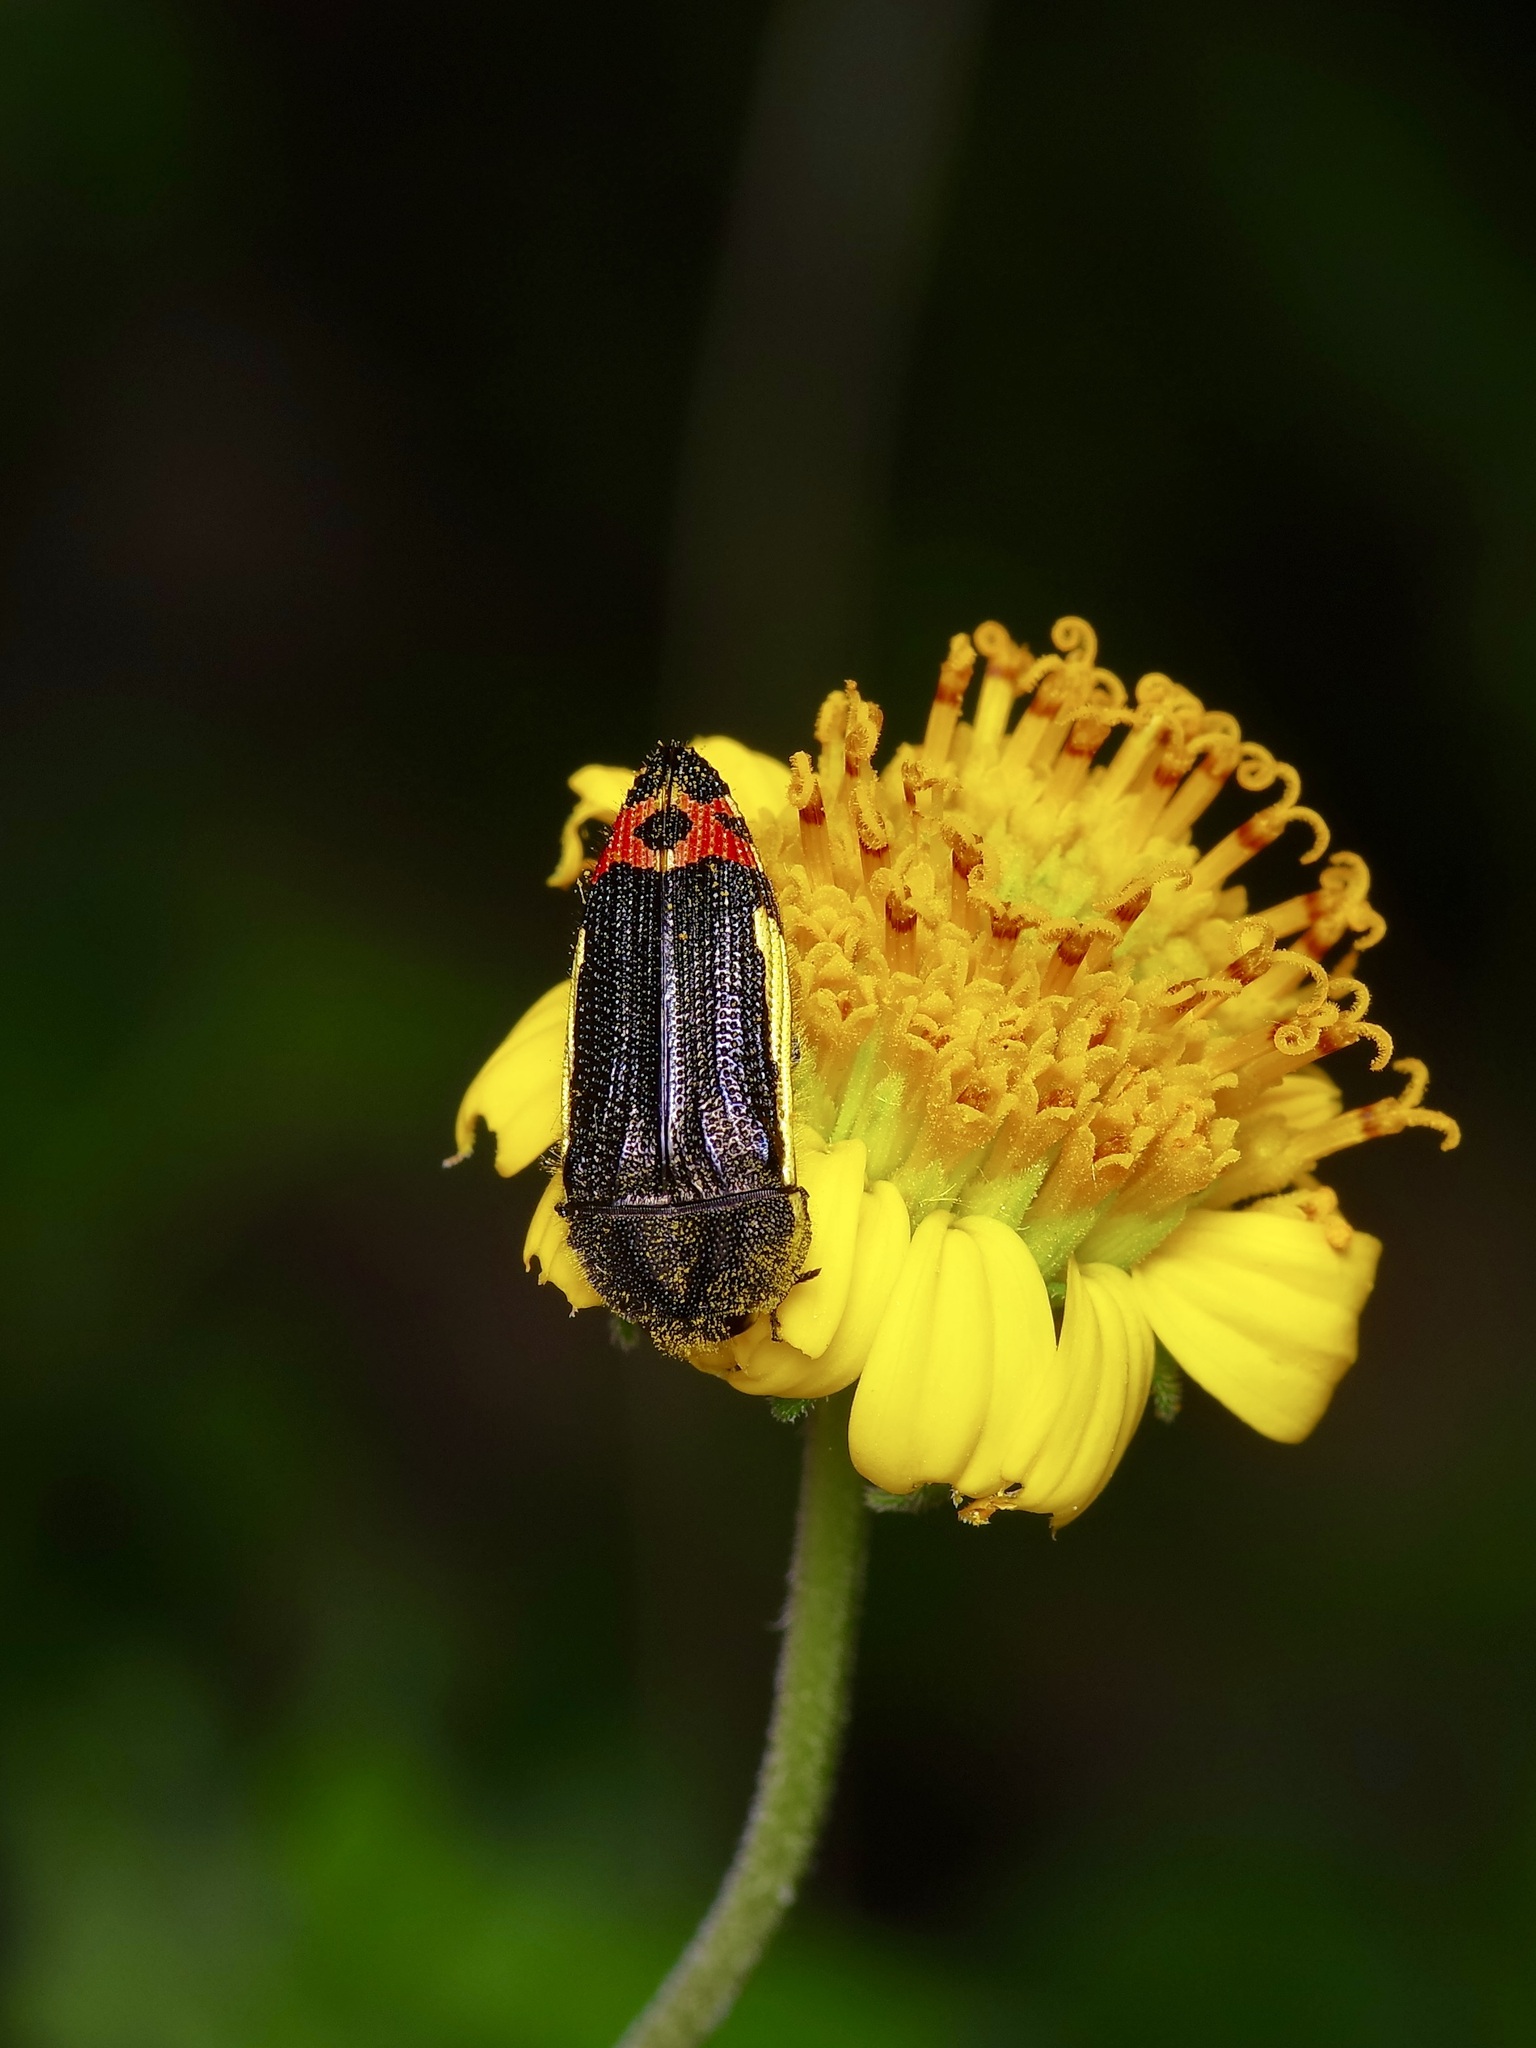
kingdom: Animalia
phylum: Arthropoda
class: Insecta
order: Coleoptera
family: Buprestidae
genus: Acmaeodera
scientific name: Acmaeodera flavomarginata
